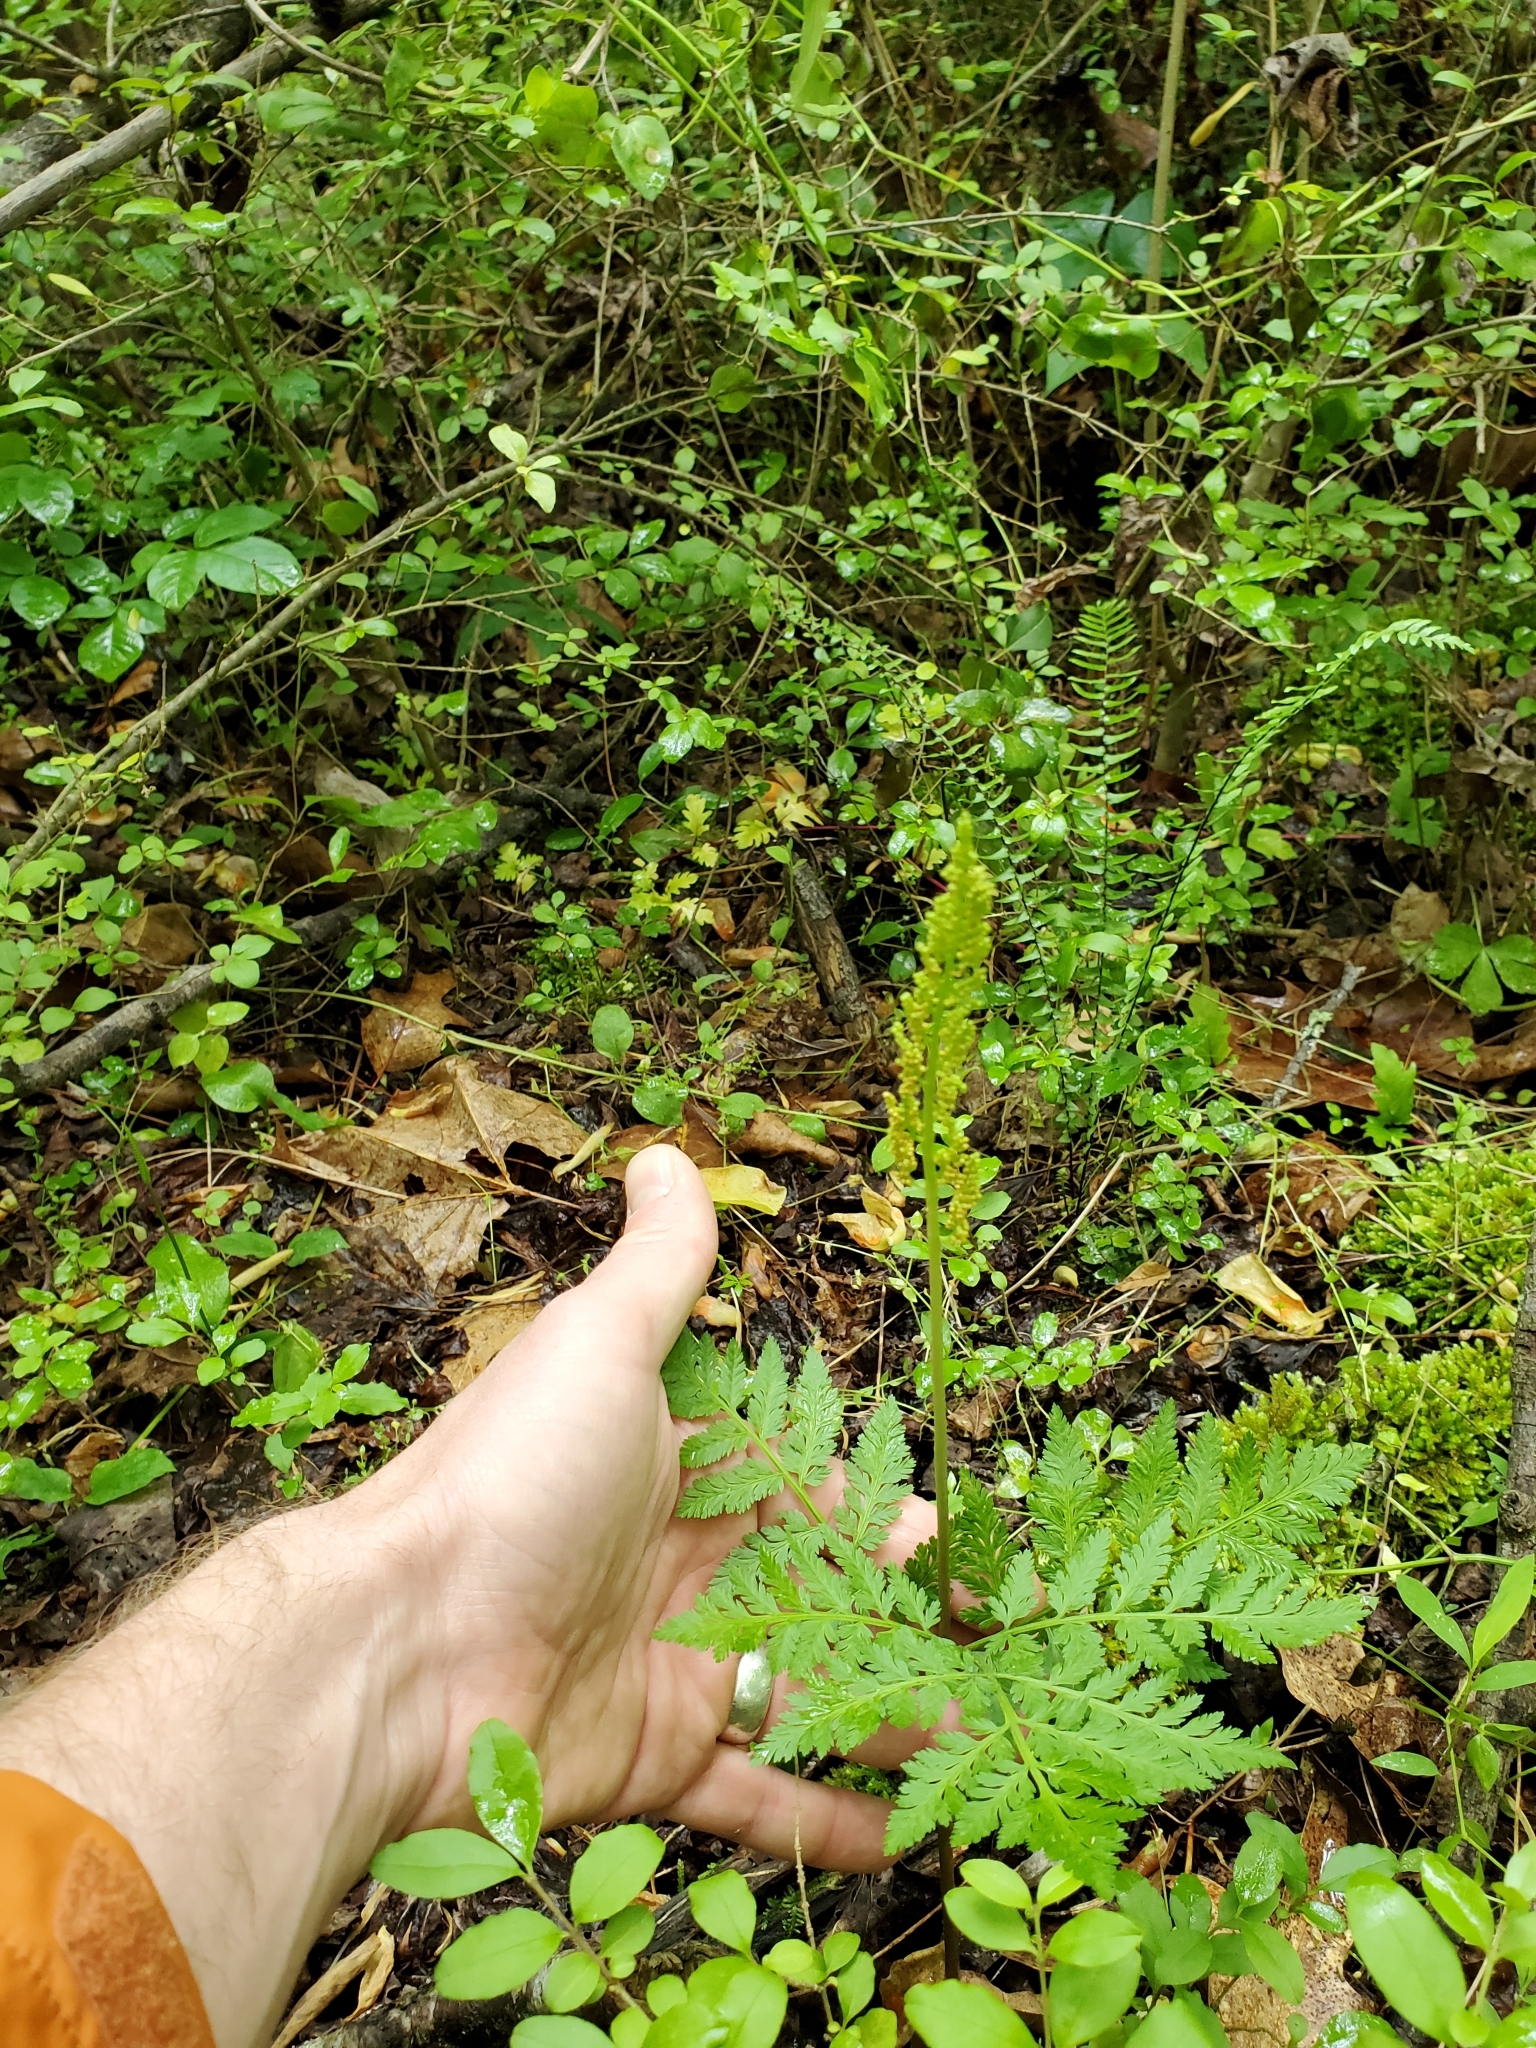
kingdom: Plantae
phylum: Tracheophyta
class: Polypodiopsida
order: Ophioglossales
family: Ophioglossaceae
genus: Botrypus
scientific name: Botrypus virginianus
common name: Common grapefern
